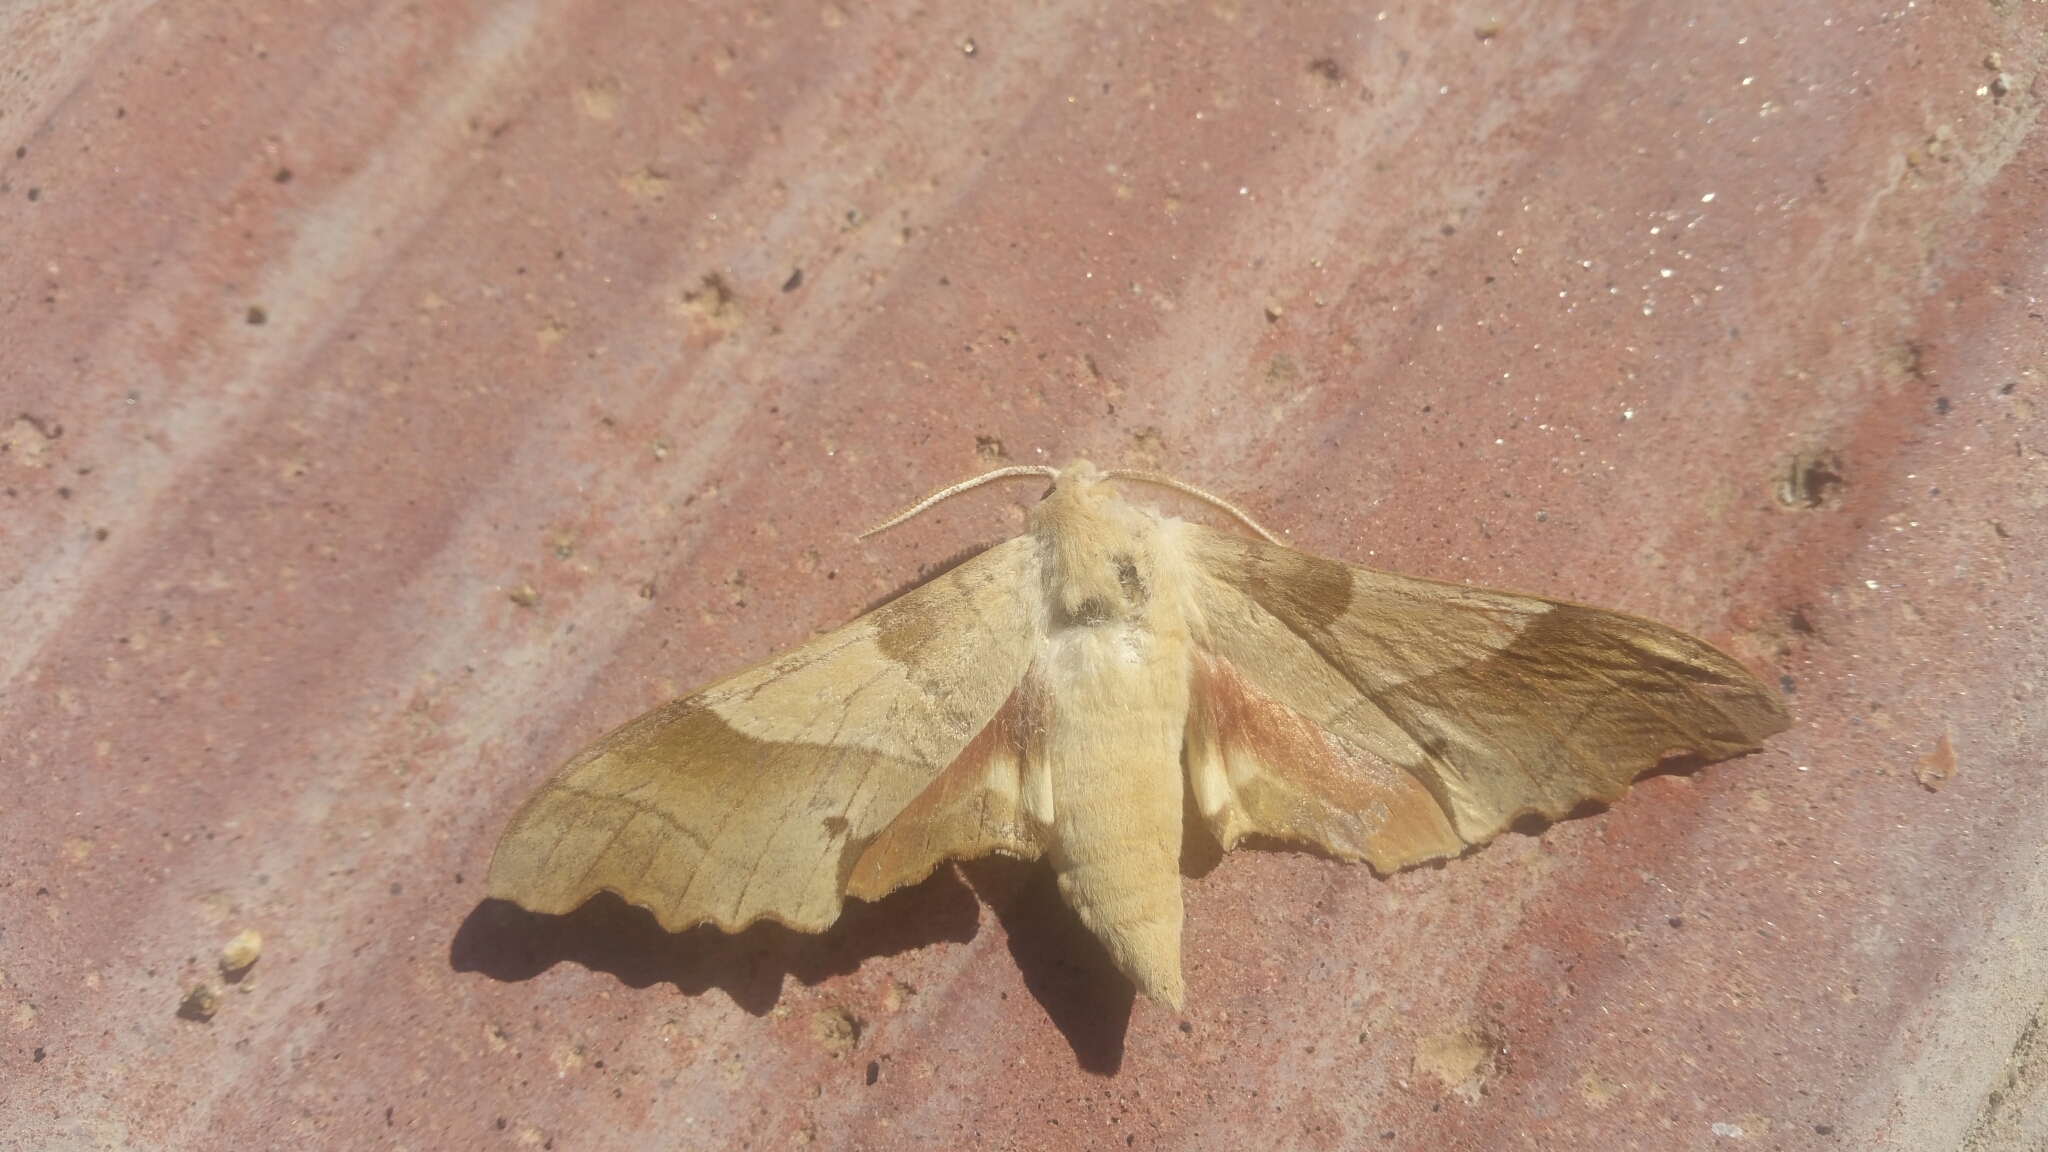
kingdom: Animalia
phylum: Arthropoda
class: Insecta
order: Lepidoptera
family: Sphingidae
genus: Marumba
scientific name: Marumba quercus
